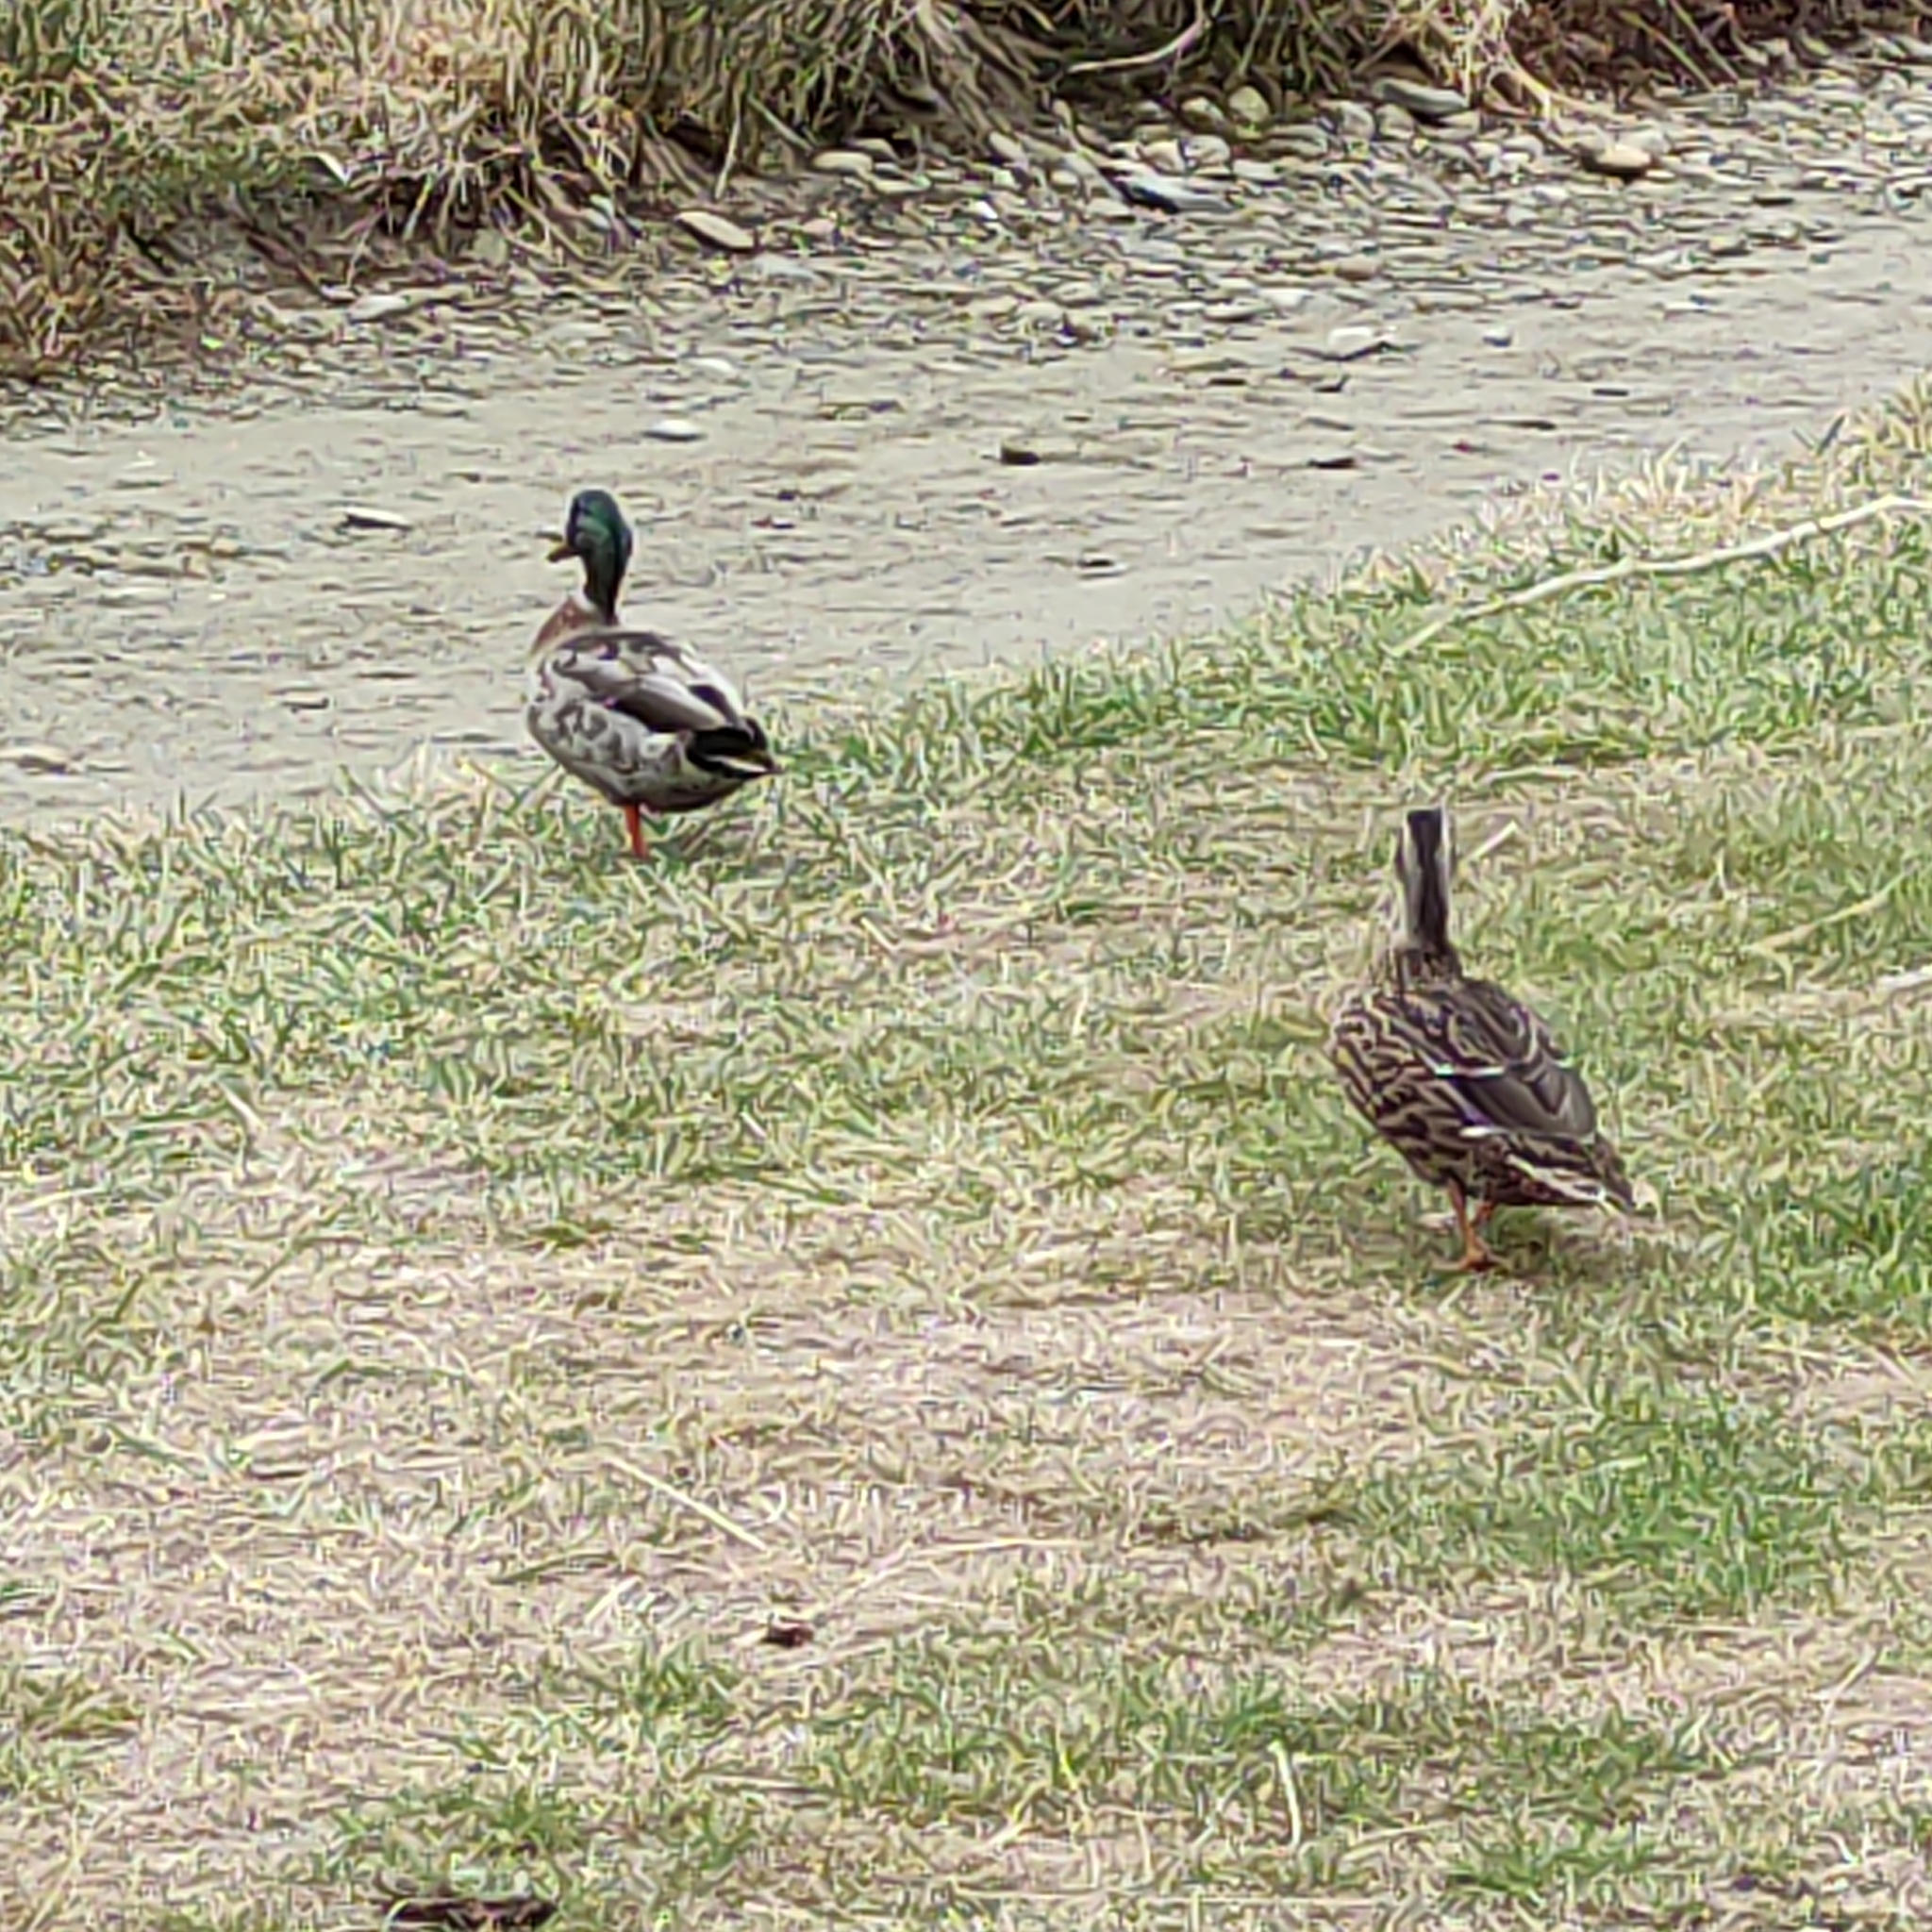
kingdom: Animalia
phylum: Chordata
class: Aves
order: Anseriformes
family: Anatidae
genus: Anas
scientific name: Anas platyrhynchos
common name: Mallard
